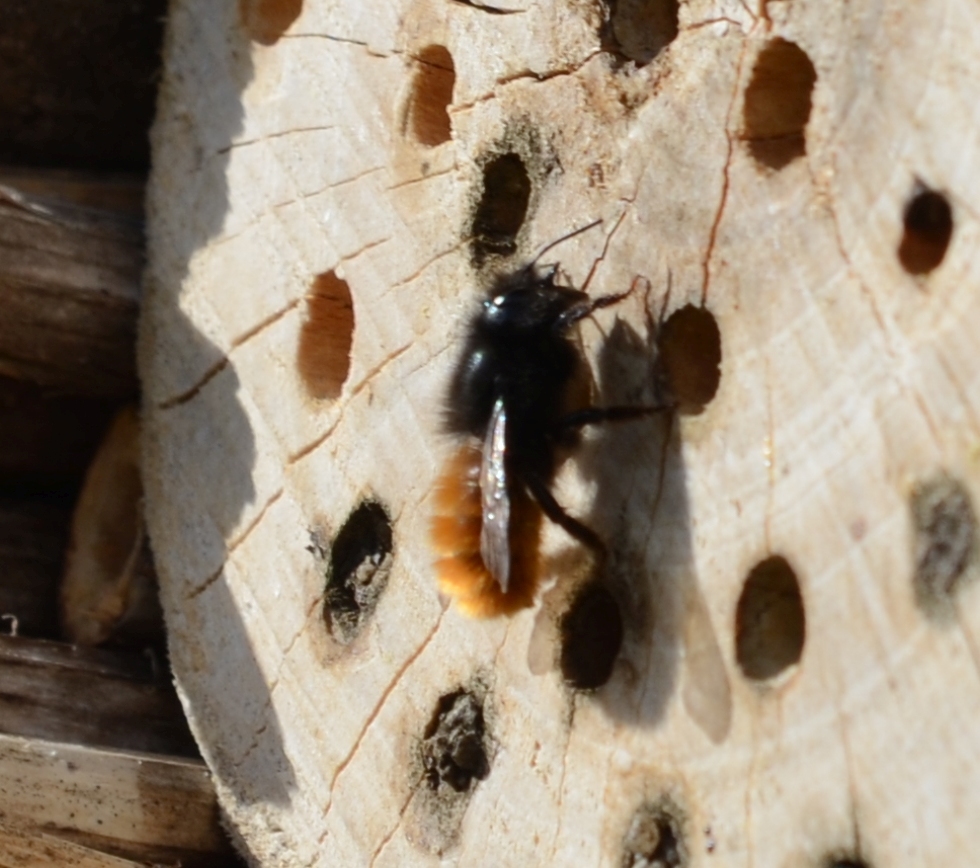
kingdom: Animalia
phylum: Arthropoda
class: Insecta
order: Hymenoptera
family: Megachilidae
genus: Osmia
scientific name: Osmia cornuta
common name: Mason bee
